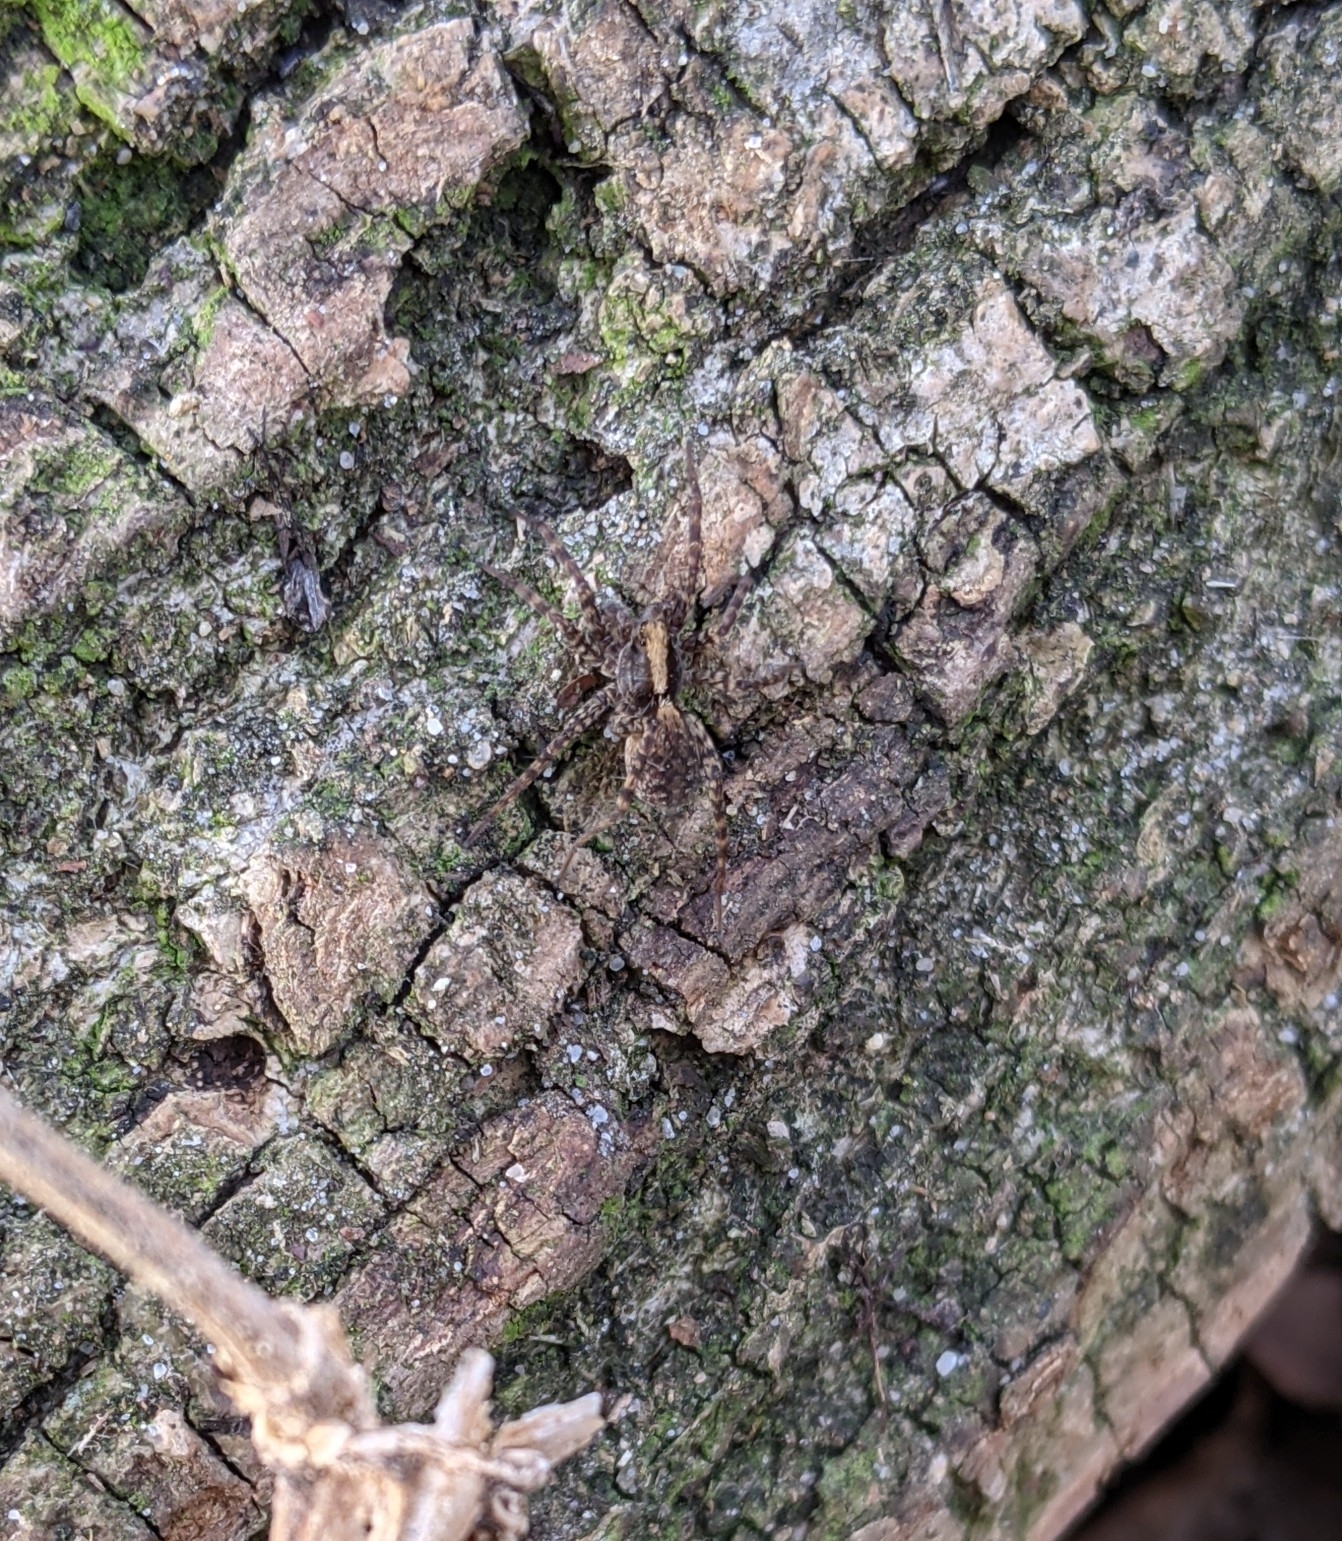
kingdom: Animalia
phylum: Arthropoda
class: Arachnida
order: Araneae
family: Lycosidae
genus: Pardosa
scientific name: Pardosa
